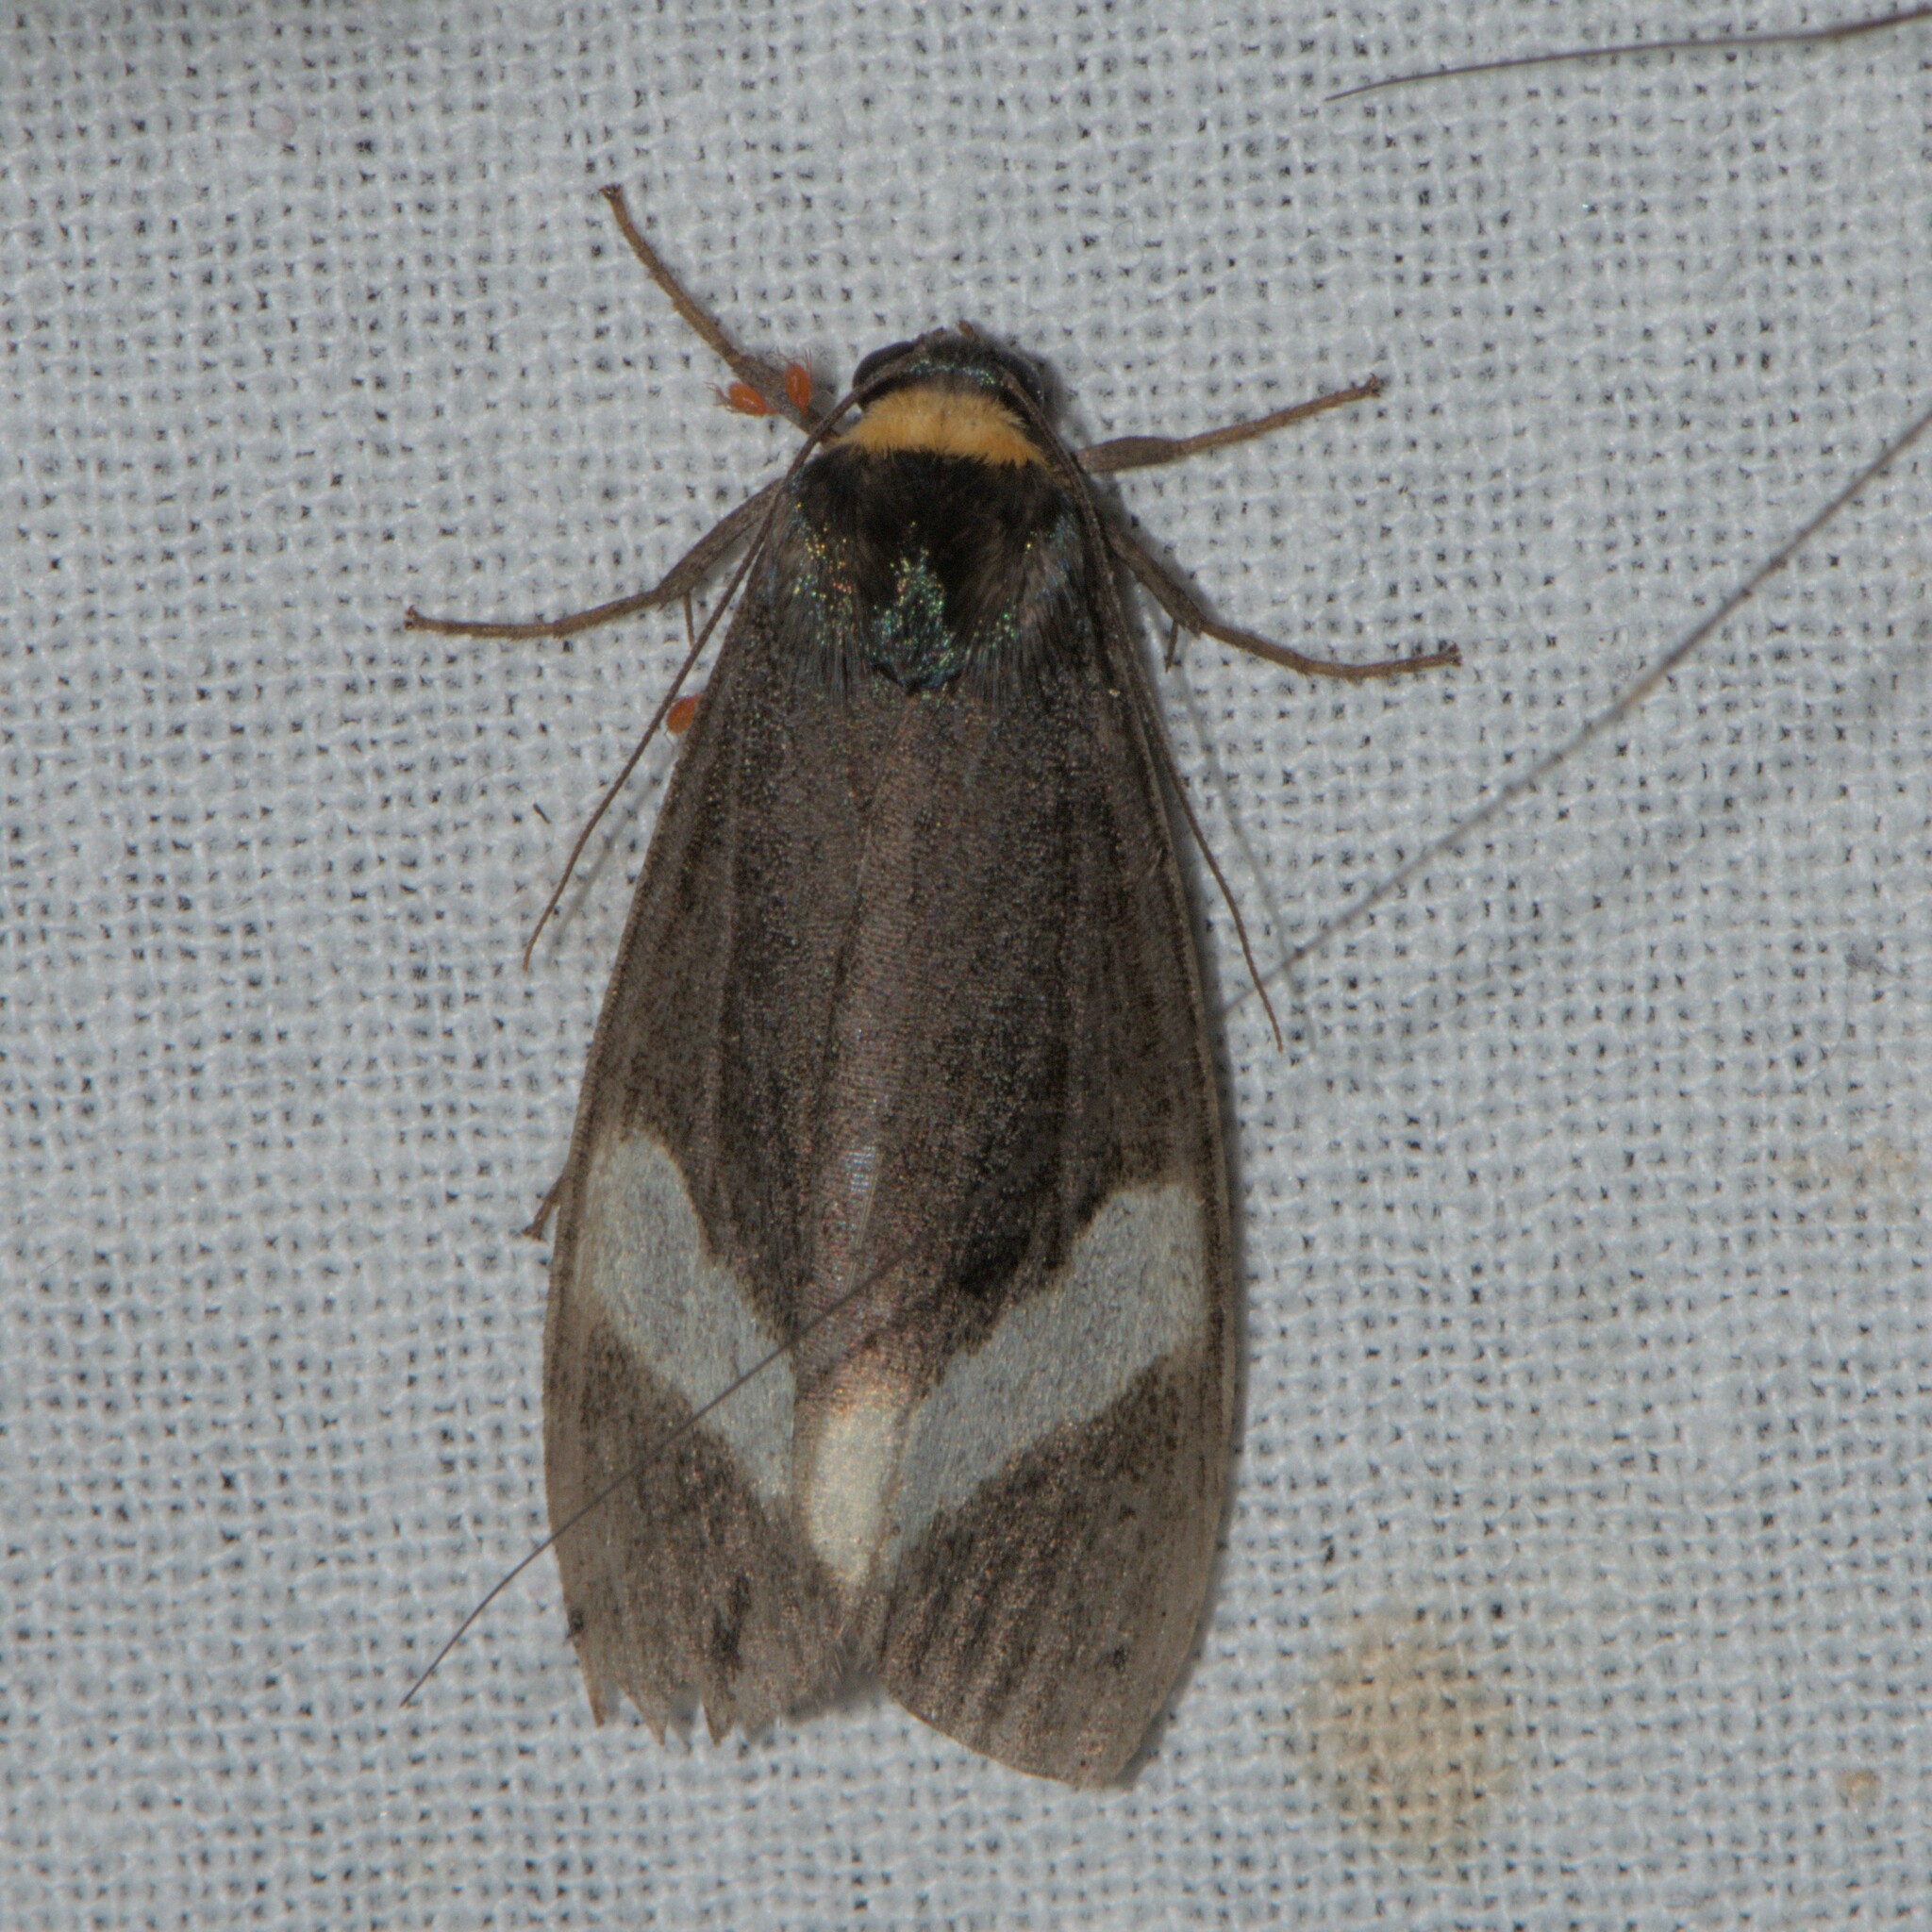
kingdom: Animalia
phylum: Arthropoda
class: Insecta
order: Lepidoptera
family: Erebidae
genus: Macrobrochis
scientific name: Macrobrochis albifascia
